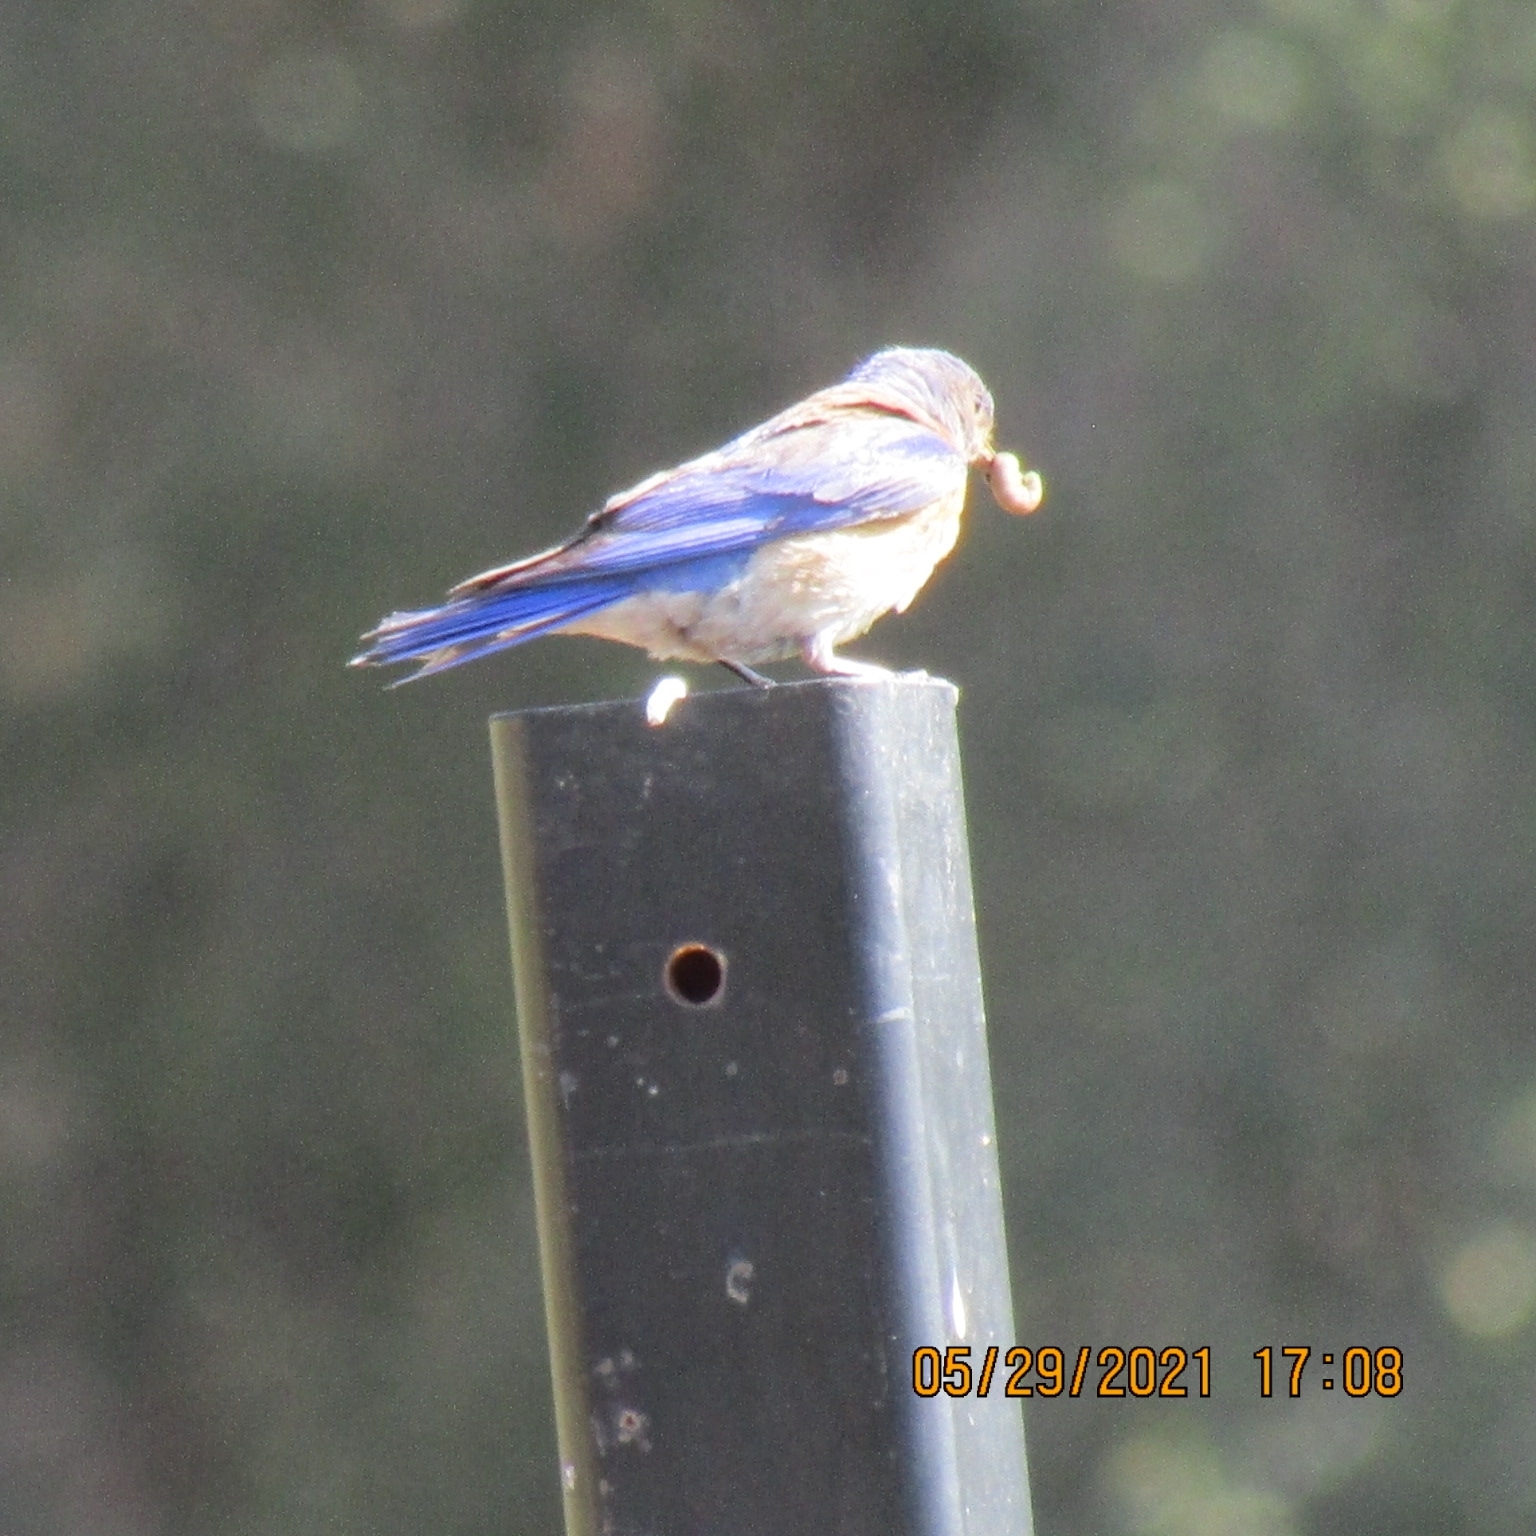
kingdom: Animalia
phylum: Chordata
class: Aves
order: Passeriformes
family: Turdidae
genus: Sialia
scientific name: Sialia mexicana
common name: Western bluebird
